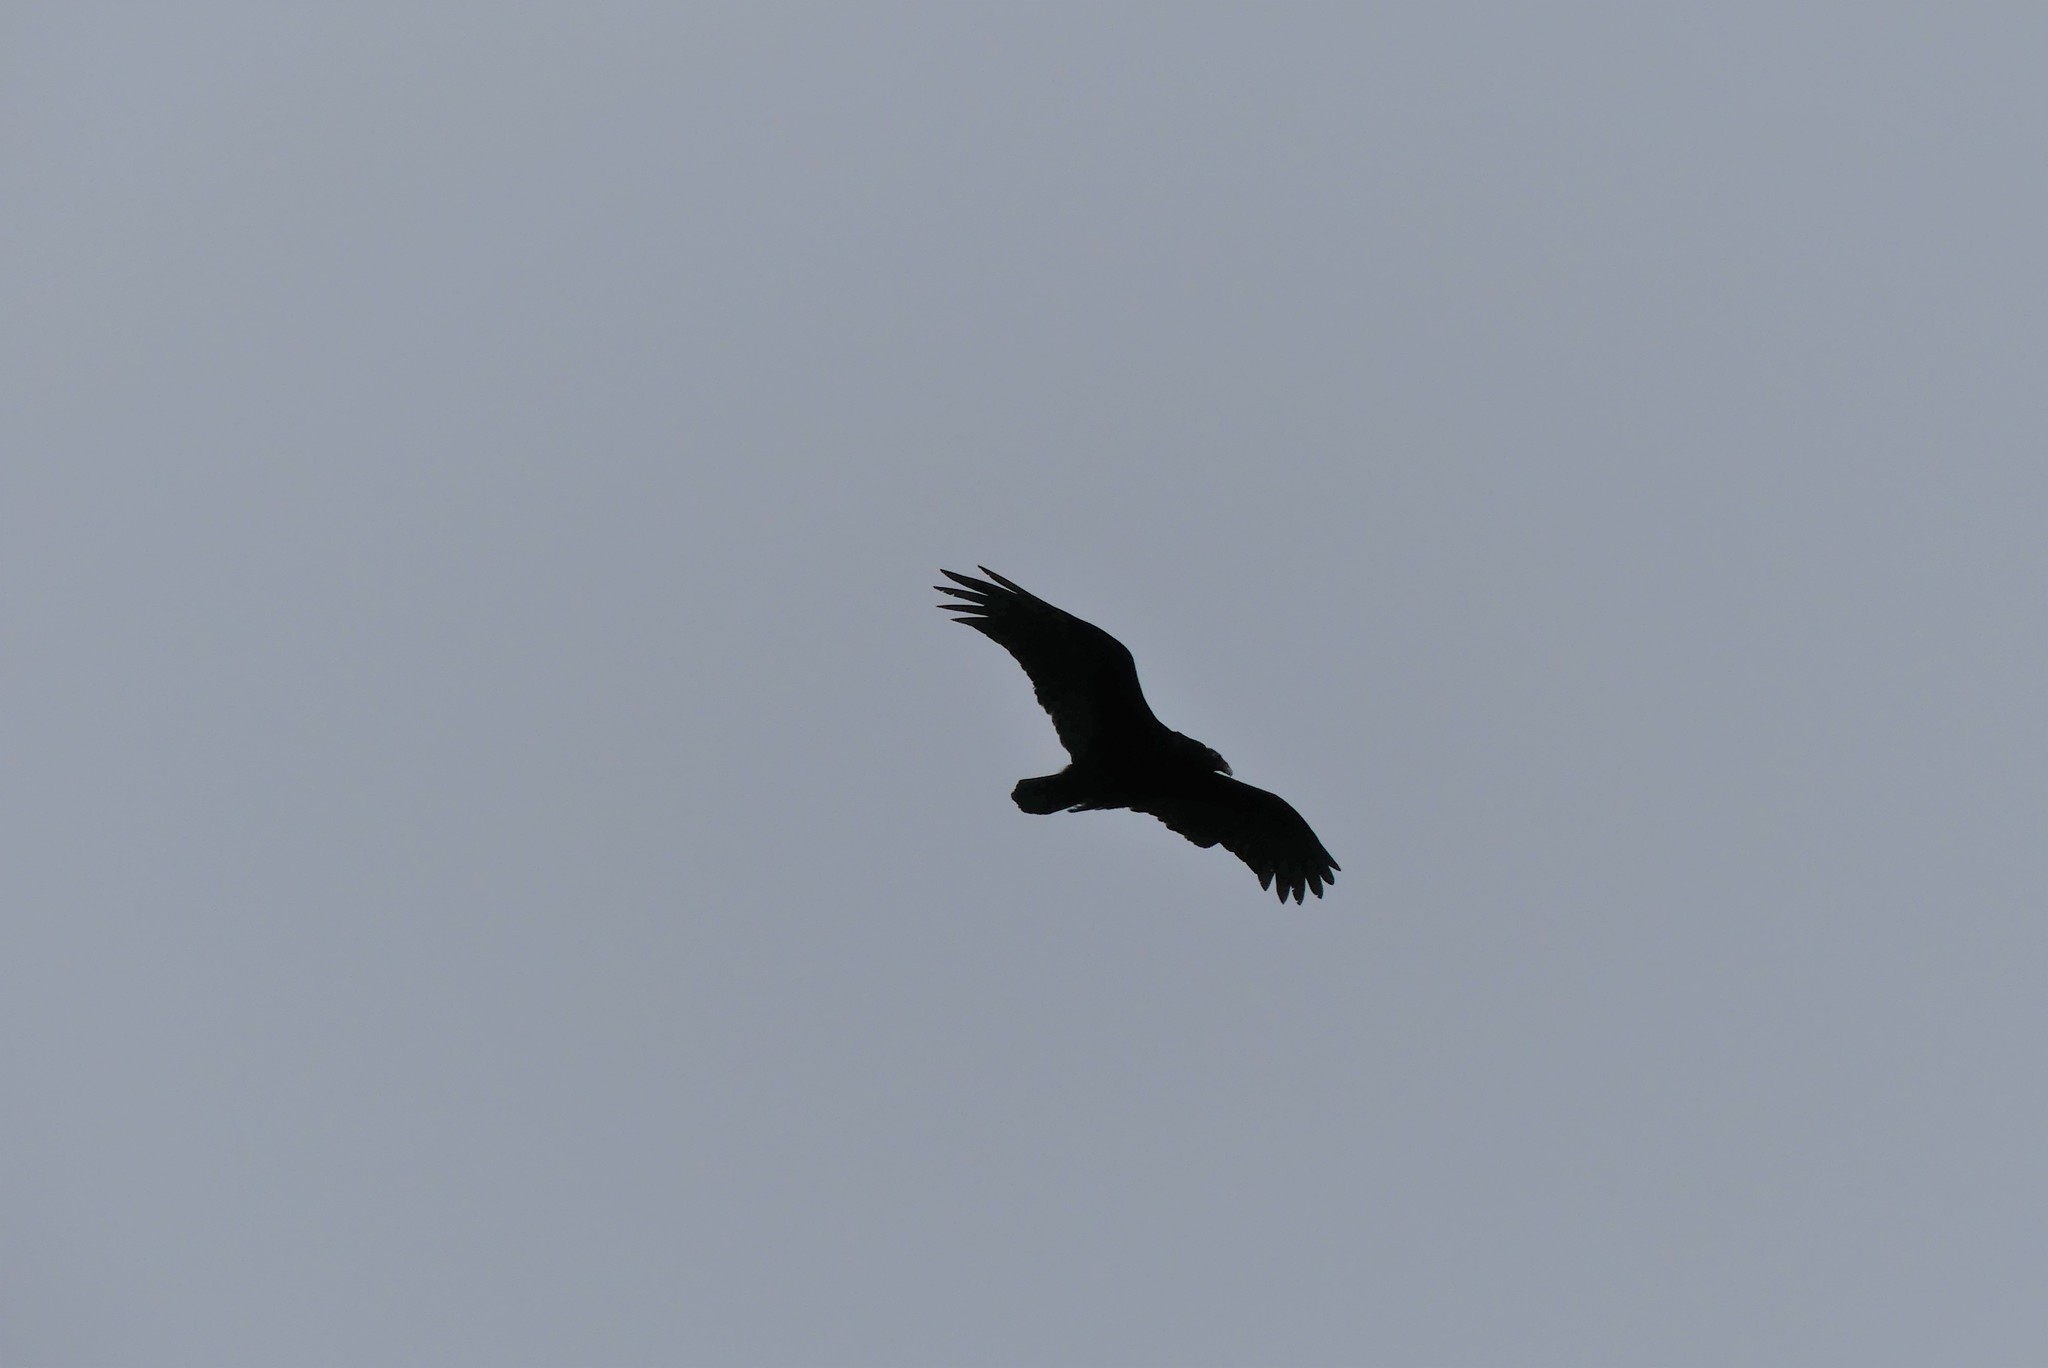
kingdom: Animalia
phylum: Chordata
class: Aves
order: Accipitriformes
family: Cathartidae
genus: Cathartes
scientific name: Cathartes aura
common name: Turkey vulture
